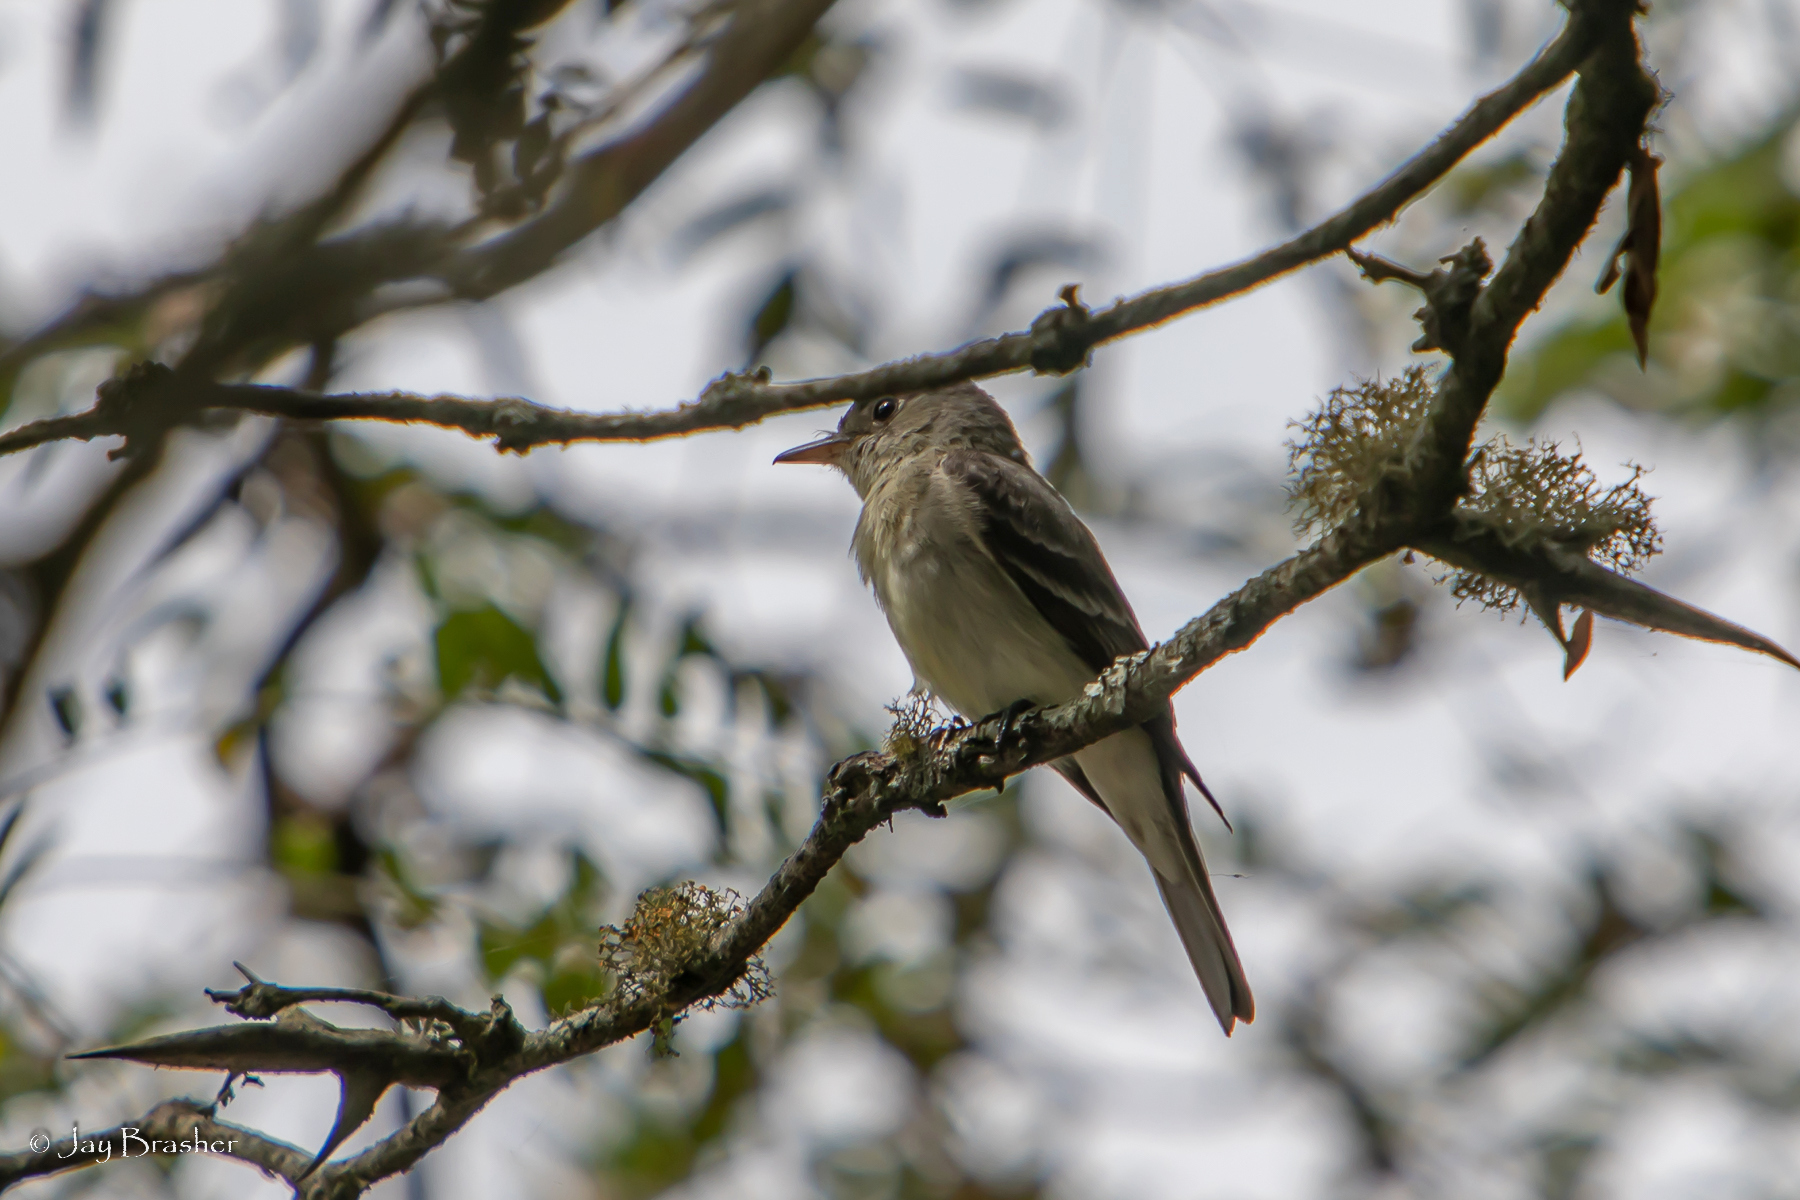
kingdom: Animalia
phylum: Chordata
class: Aves
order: Passeriformes
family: Tyrannidae
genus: Contopus
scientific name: Contopus virens
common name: Eastern wood-pewee
